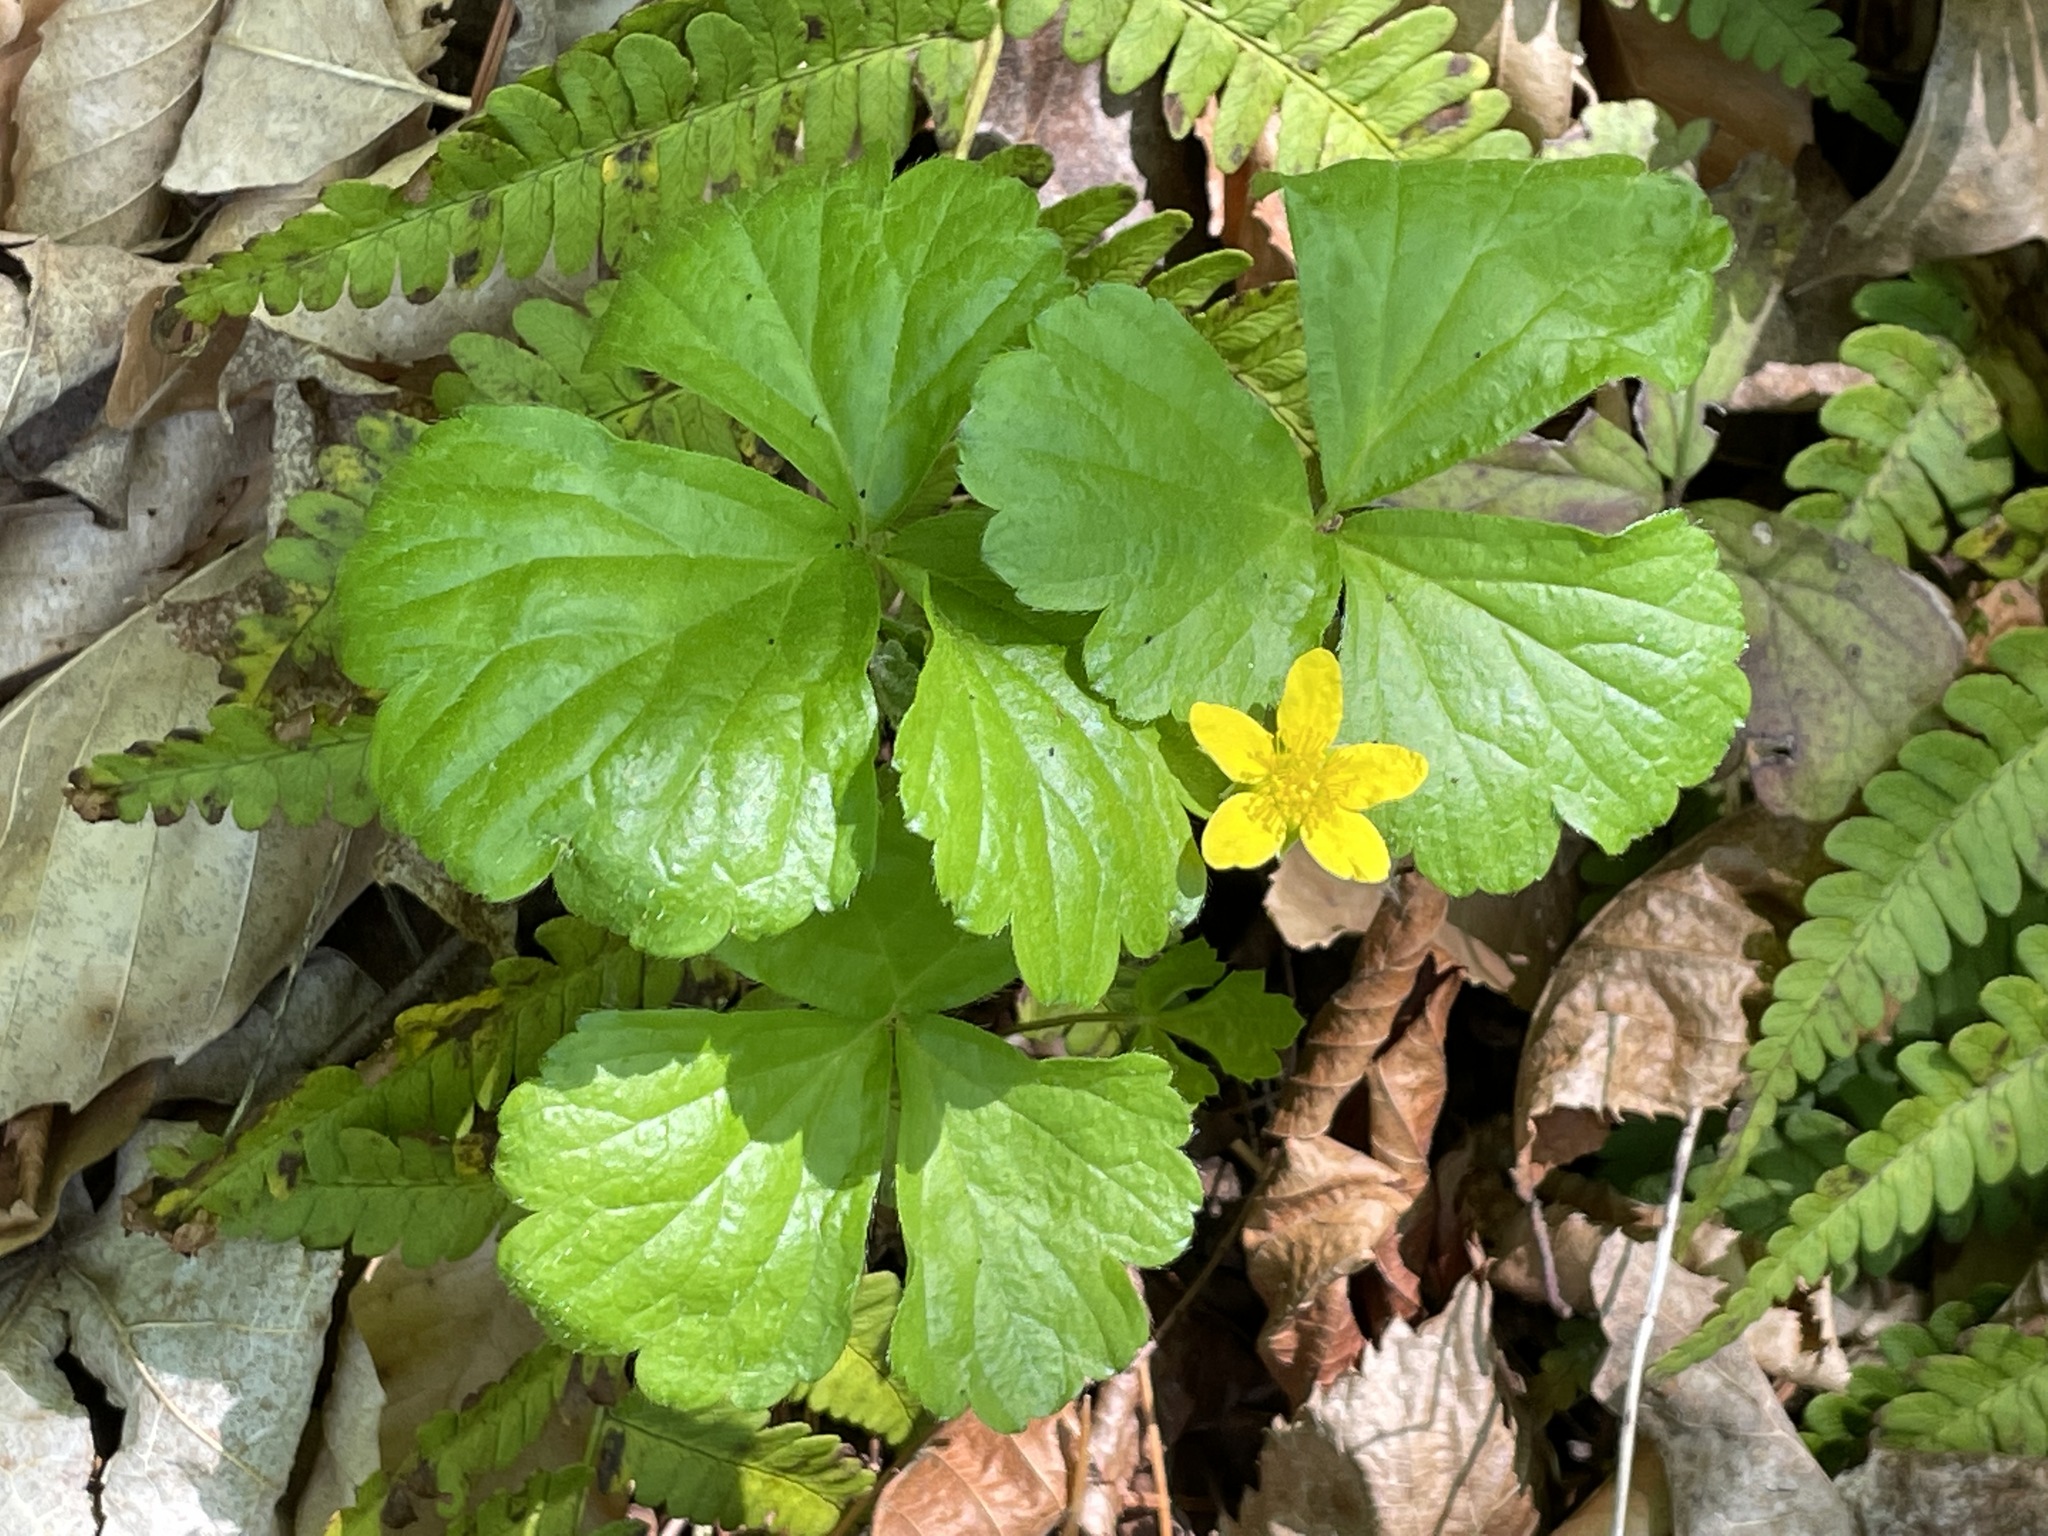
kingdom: Plantae
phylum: Tracheophyta
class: Magnoliopsida
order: Rosales
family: Rosaceae
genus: Geum
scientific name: Geum fragarioides
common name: Appalachian barren strawberry
